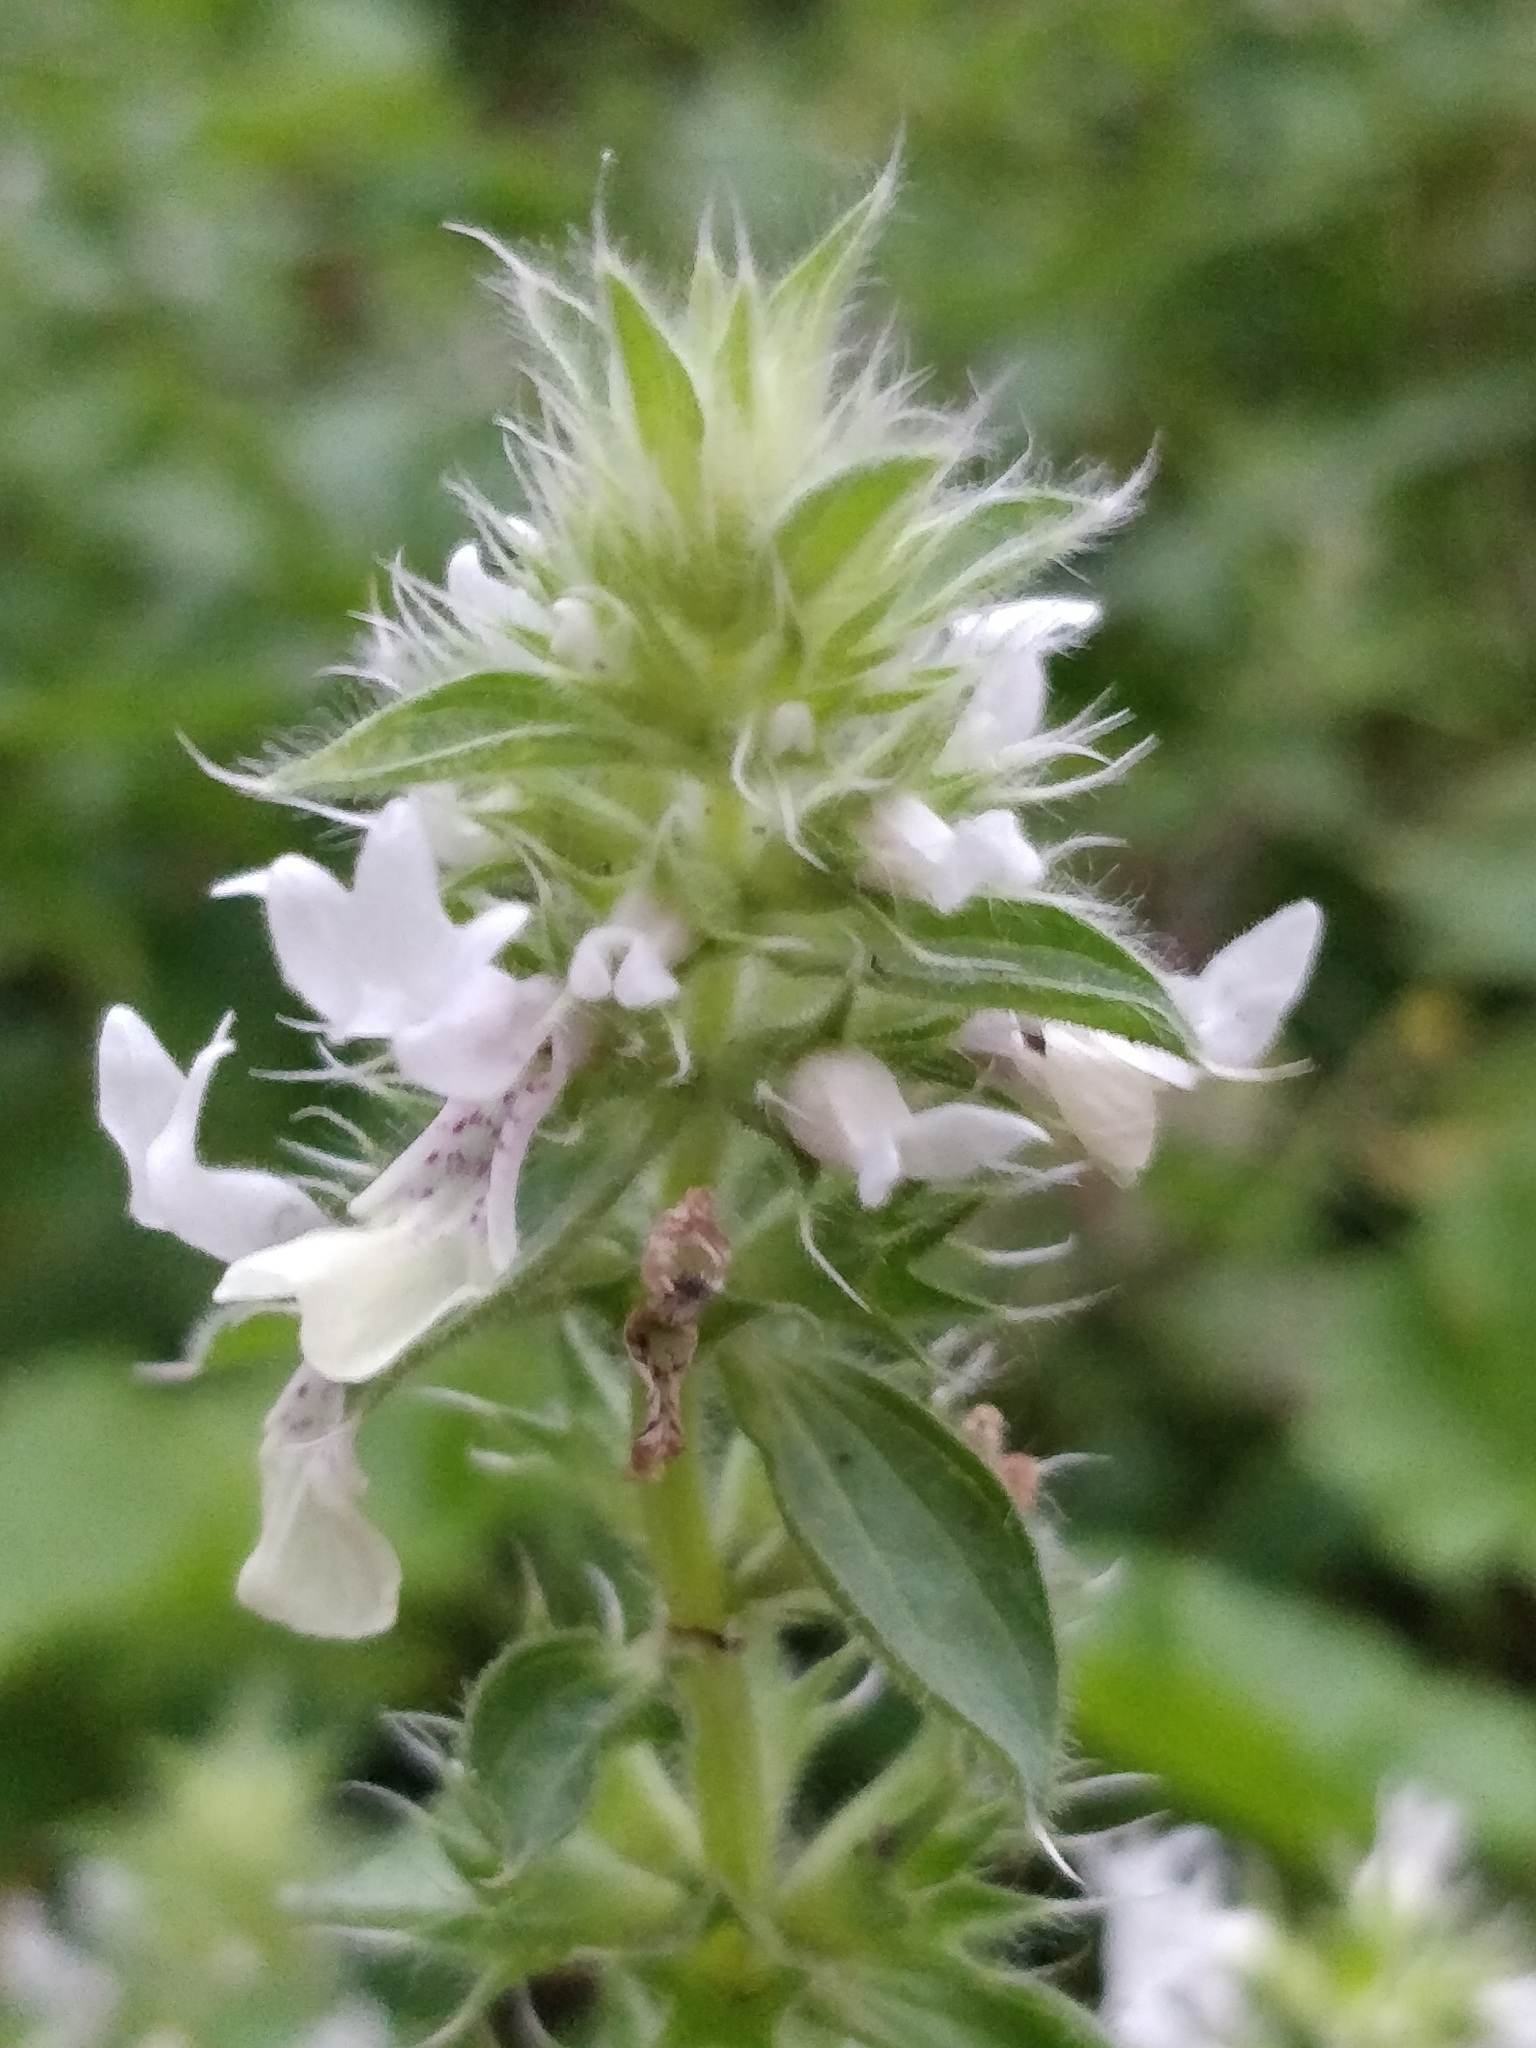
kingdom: Plantae
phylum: Tracheophyta
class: Magnoliopsida
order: Lamiales
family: Lamiaceae
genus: Stachys
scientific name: Stachys ocymastrum
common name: Italian hedgenettle
